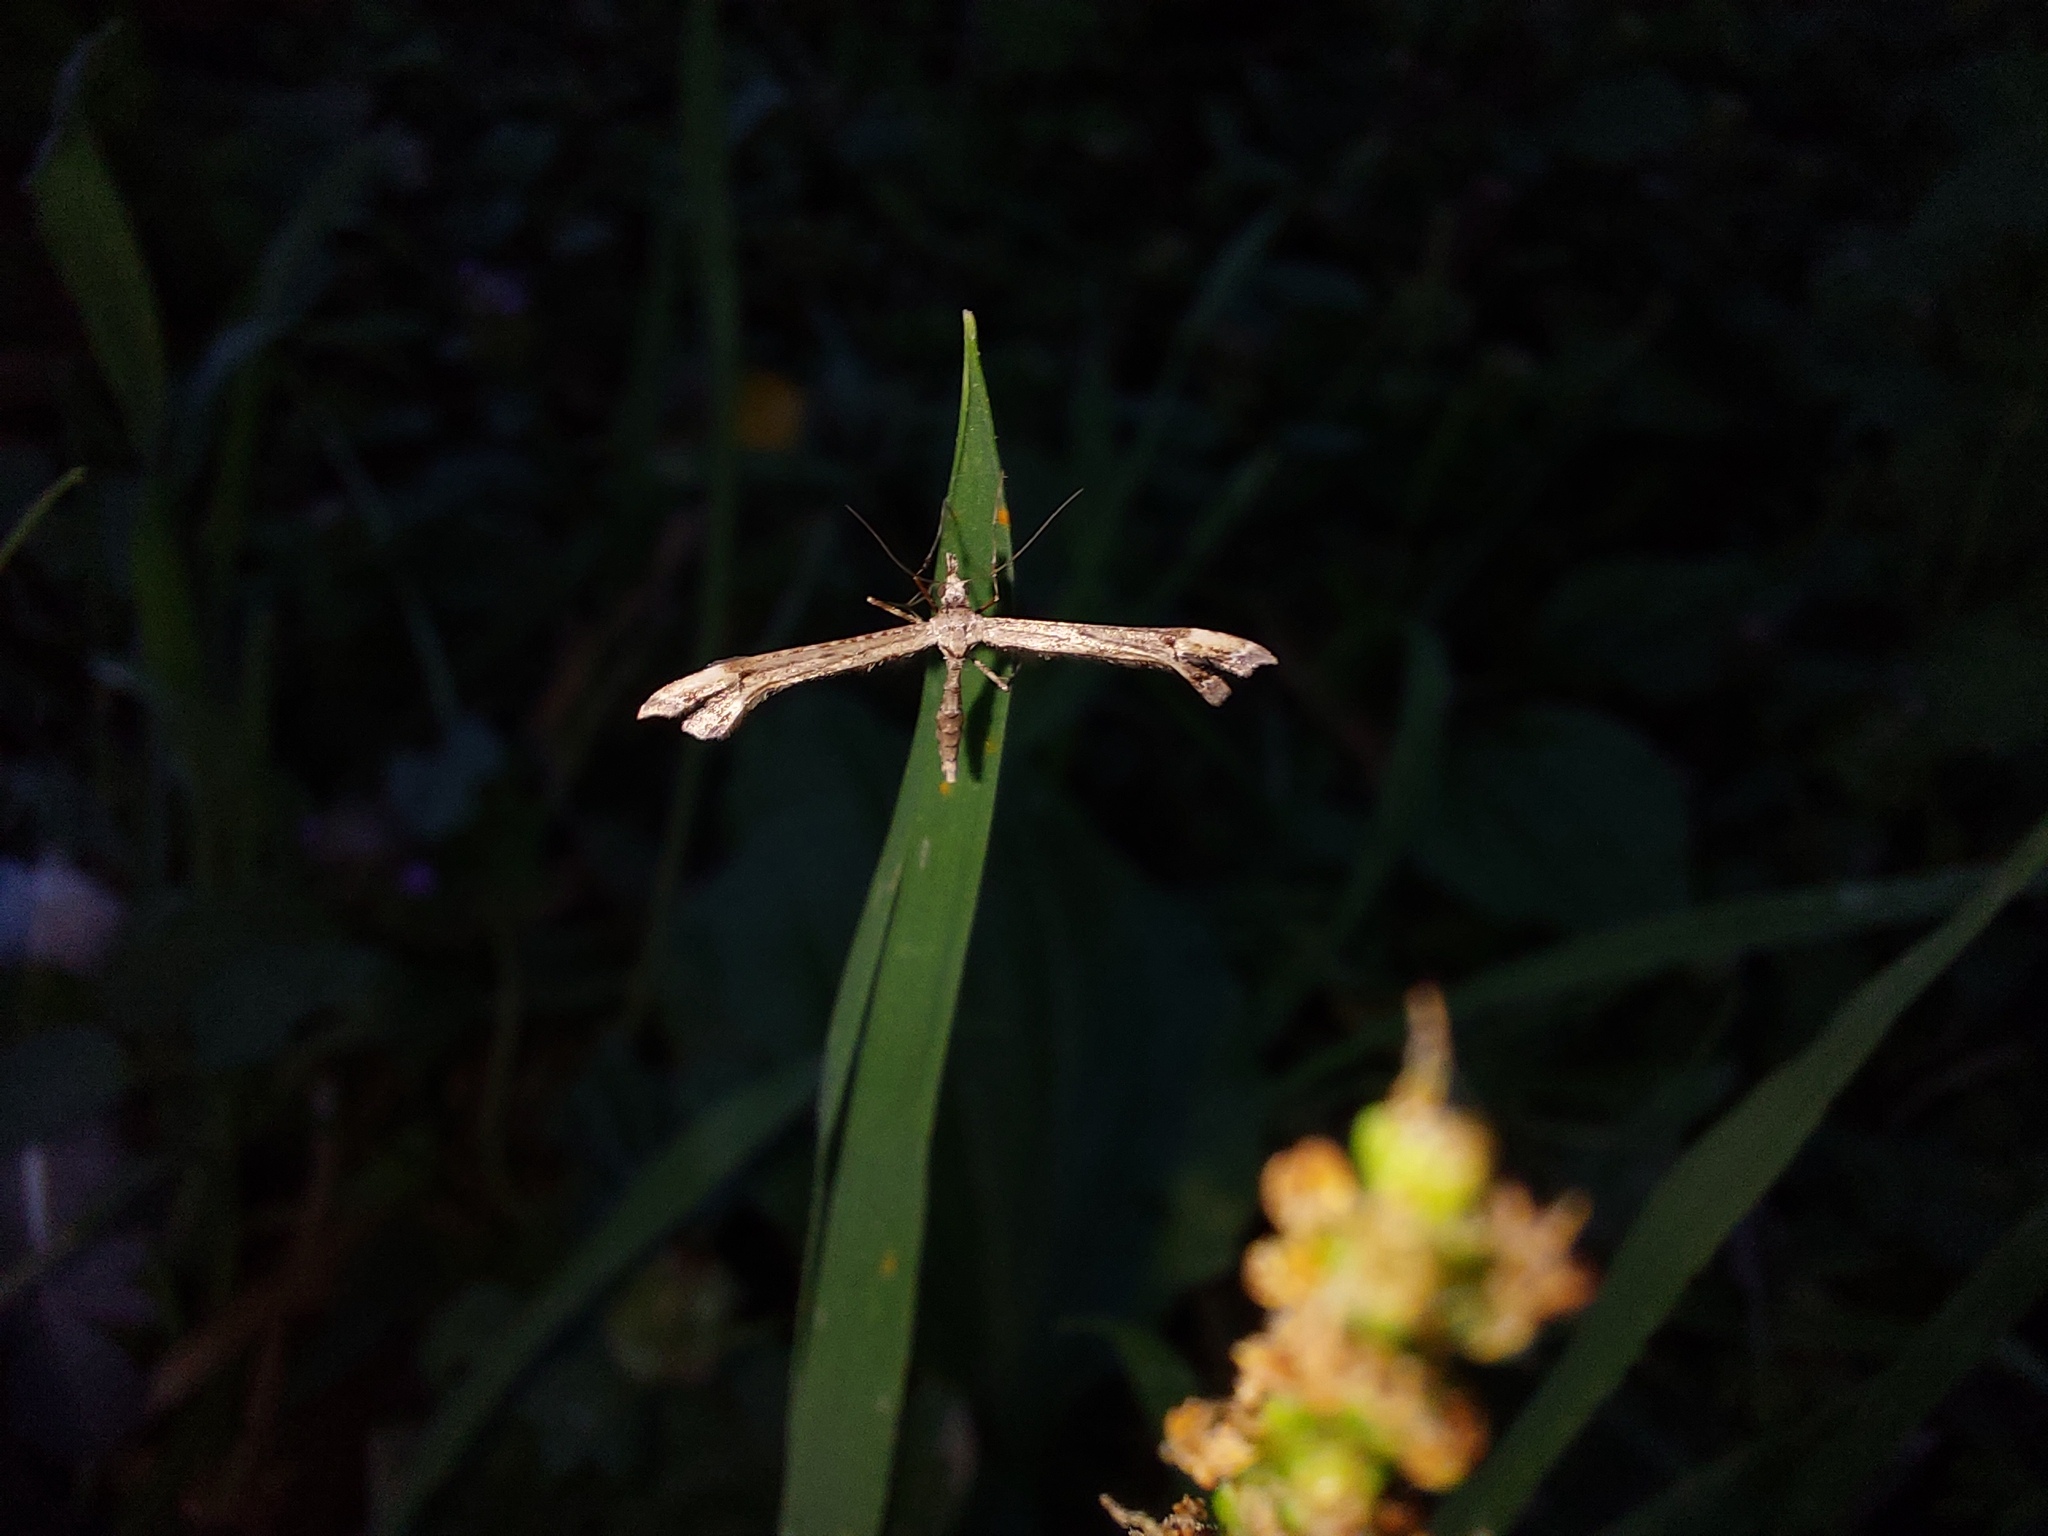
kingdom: Animalia
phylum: Arthropoda
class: Insecta
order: Lepidoptera
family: Pterophoridae
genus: Amblyptilia
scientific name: Amblyptilia repletalis
